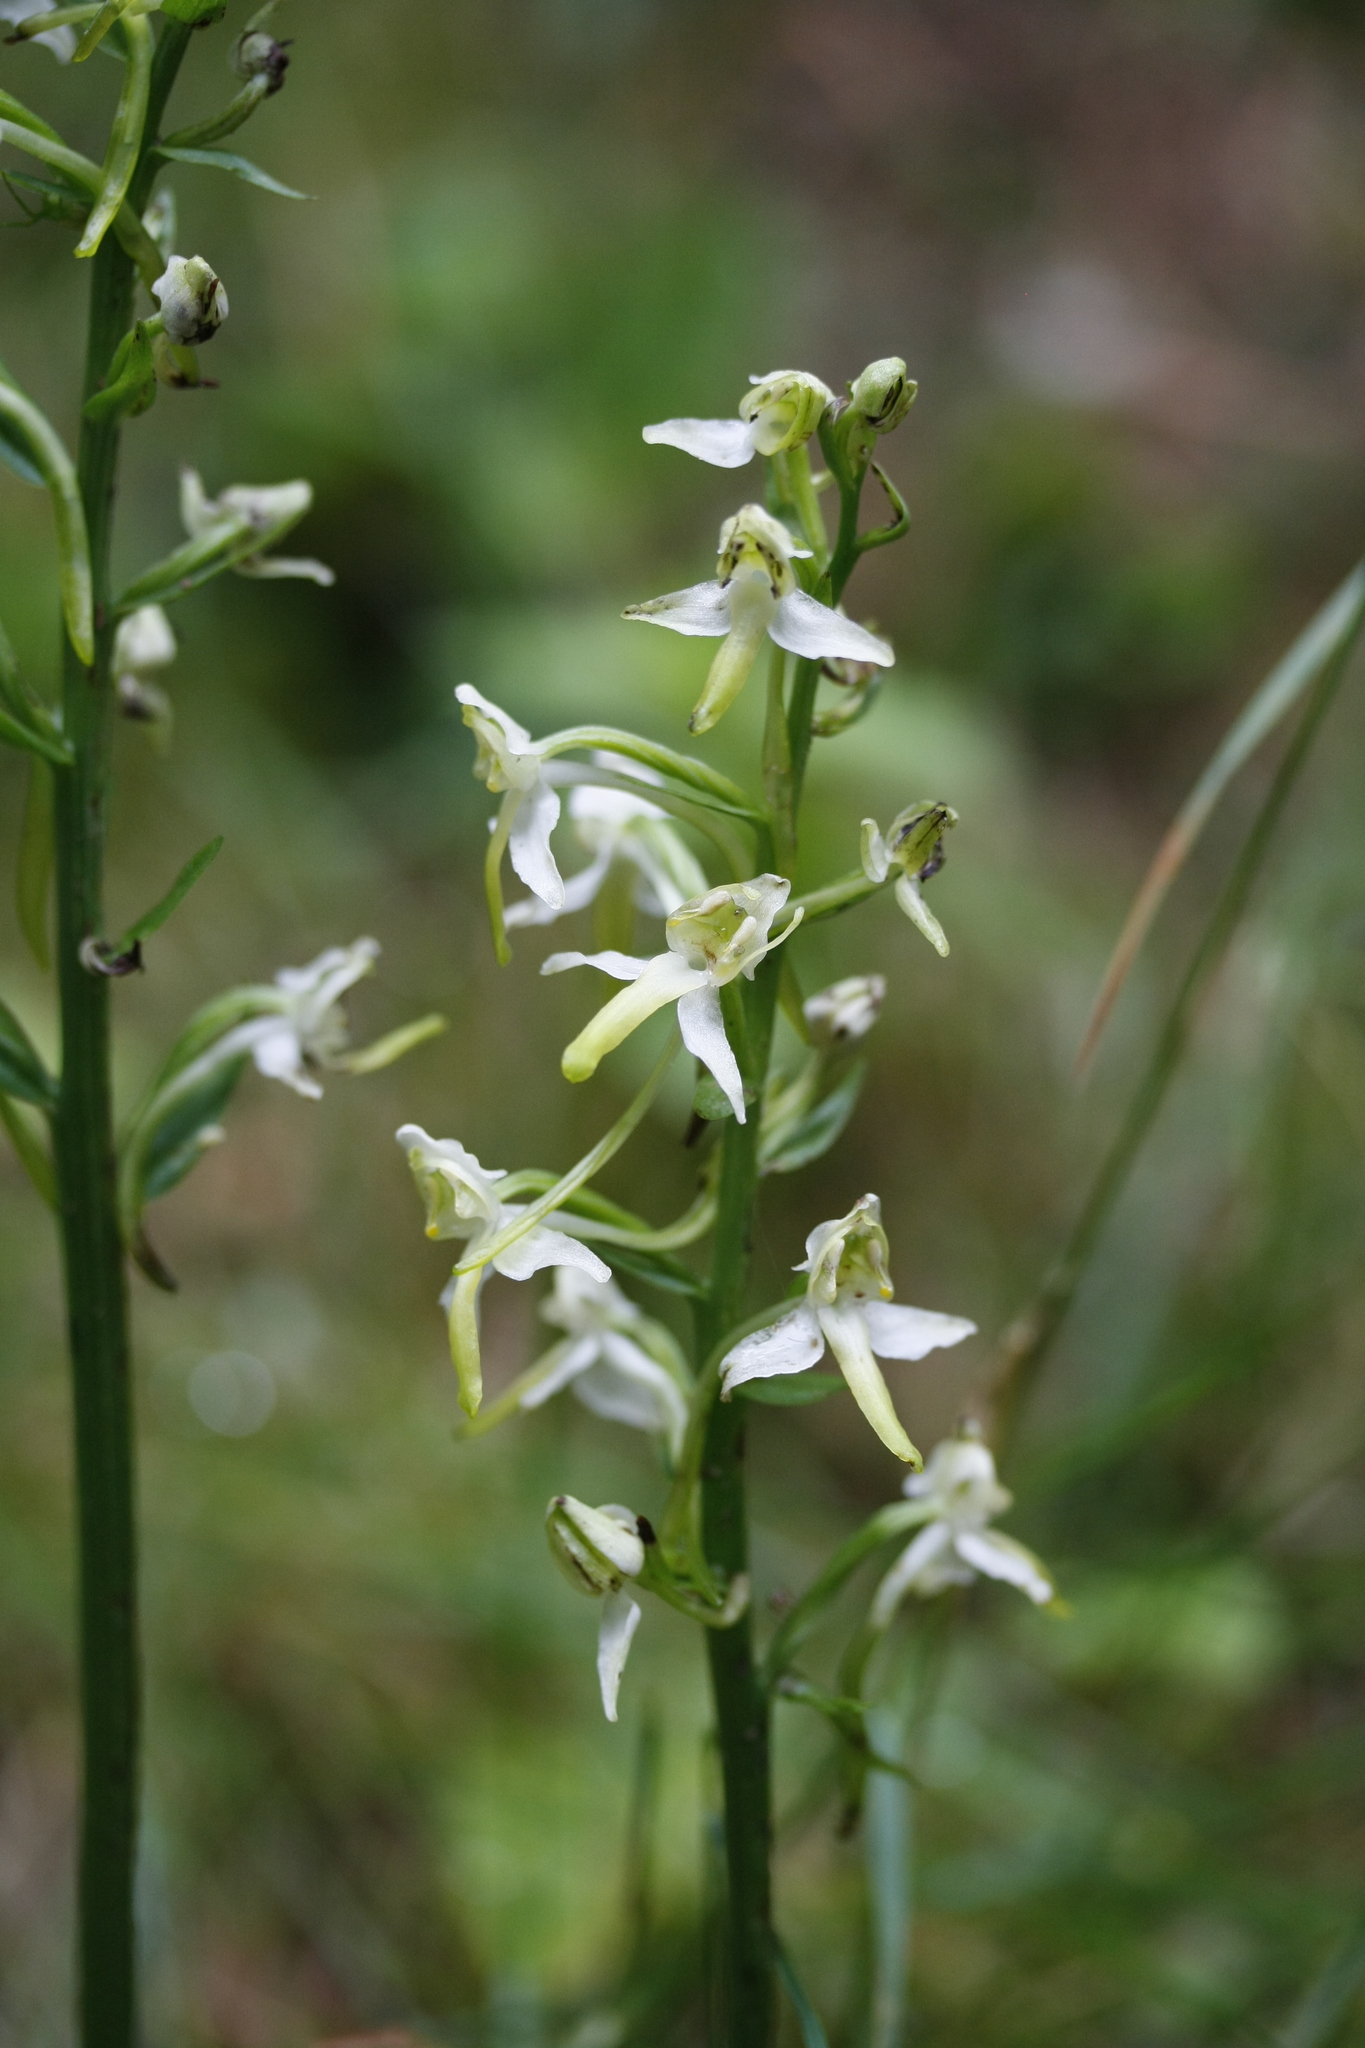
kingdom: Plantae
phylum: Tracheophyta
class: Liliopsida
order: Asparagales
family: Orchidaceae
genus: Platanthera
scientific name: Platanthera chlorantha
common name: Greater butterfly-orchid
